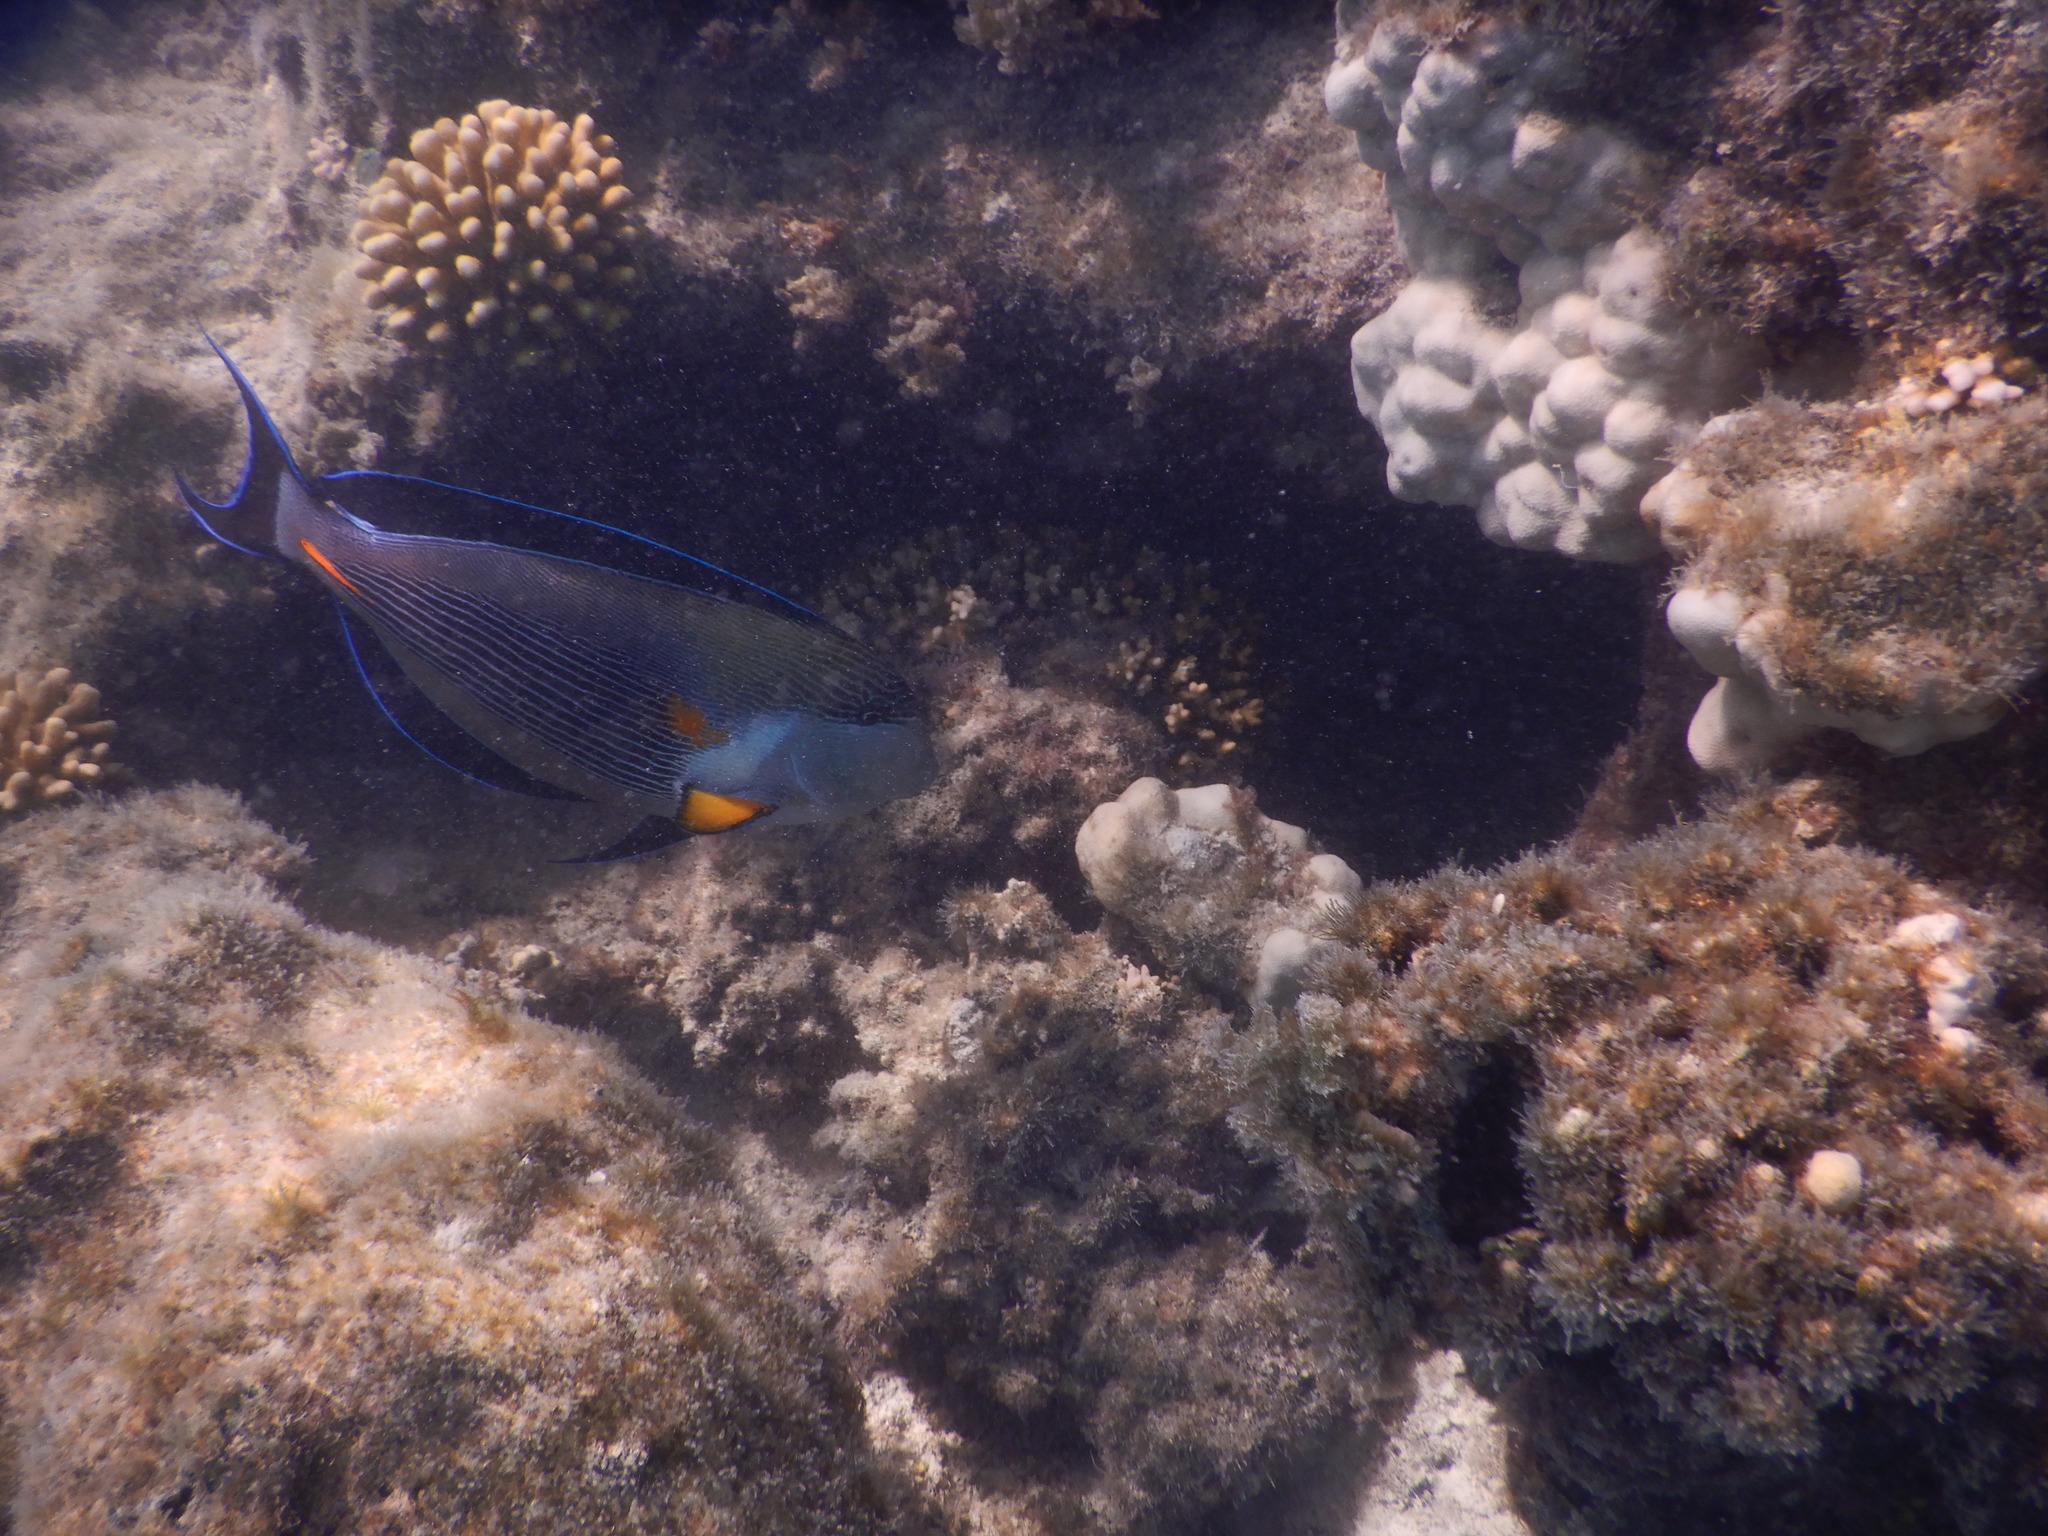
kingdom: Animalia
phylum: Chordata
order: Perciformes
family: Acanthuridae
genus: Acanthurus
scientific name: Acanthurus sohal
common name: Red sea surgeonfish
